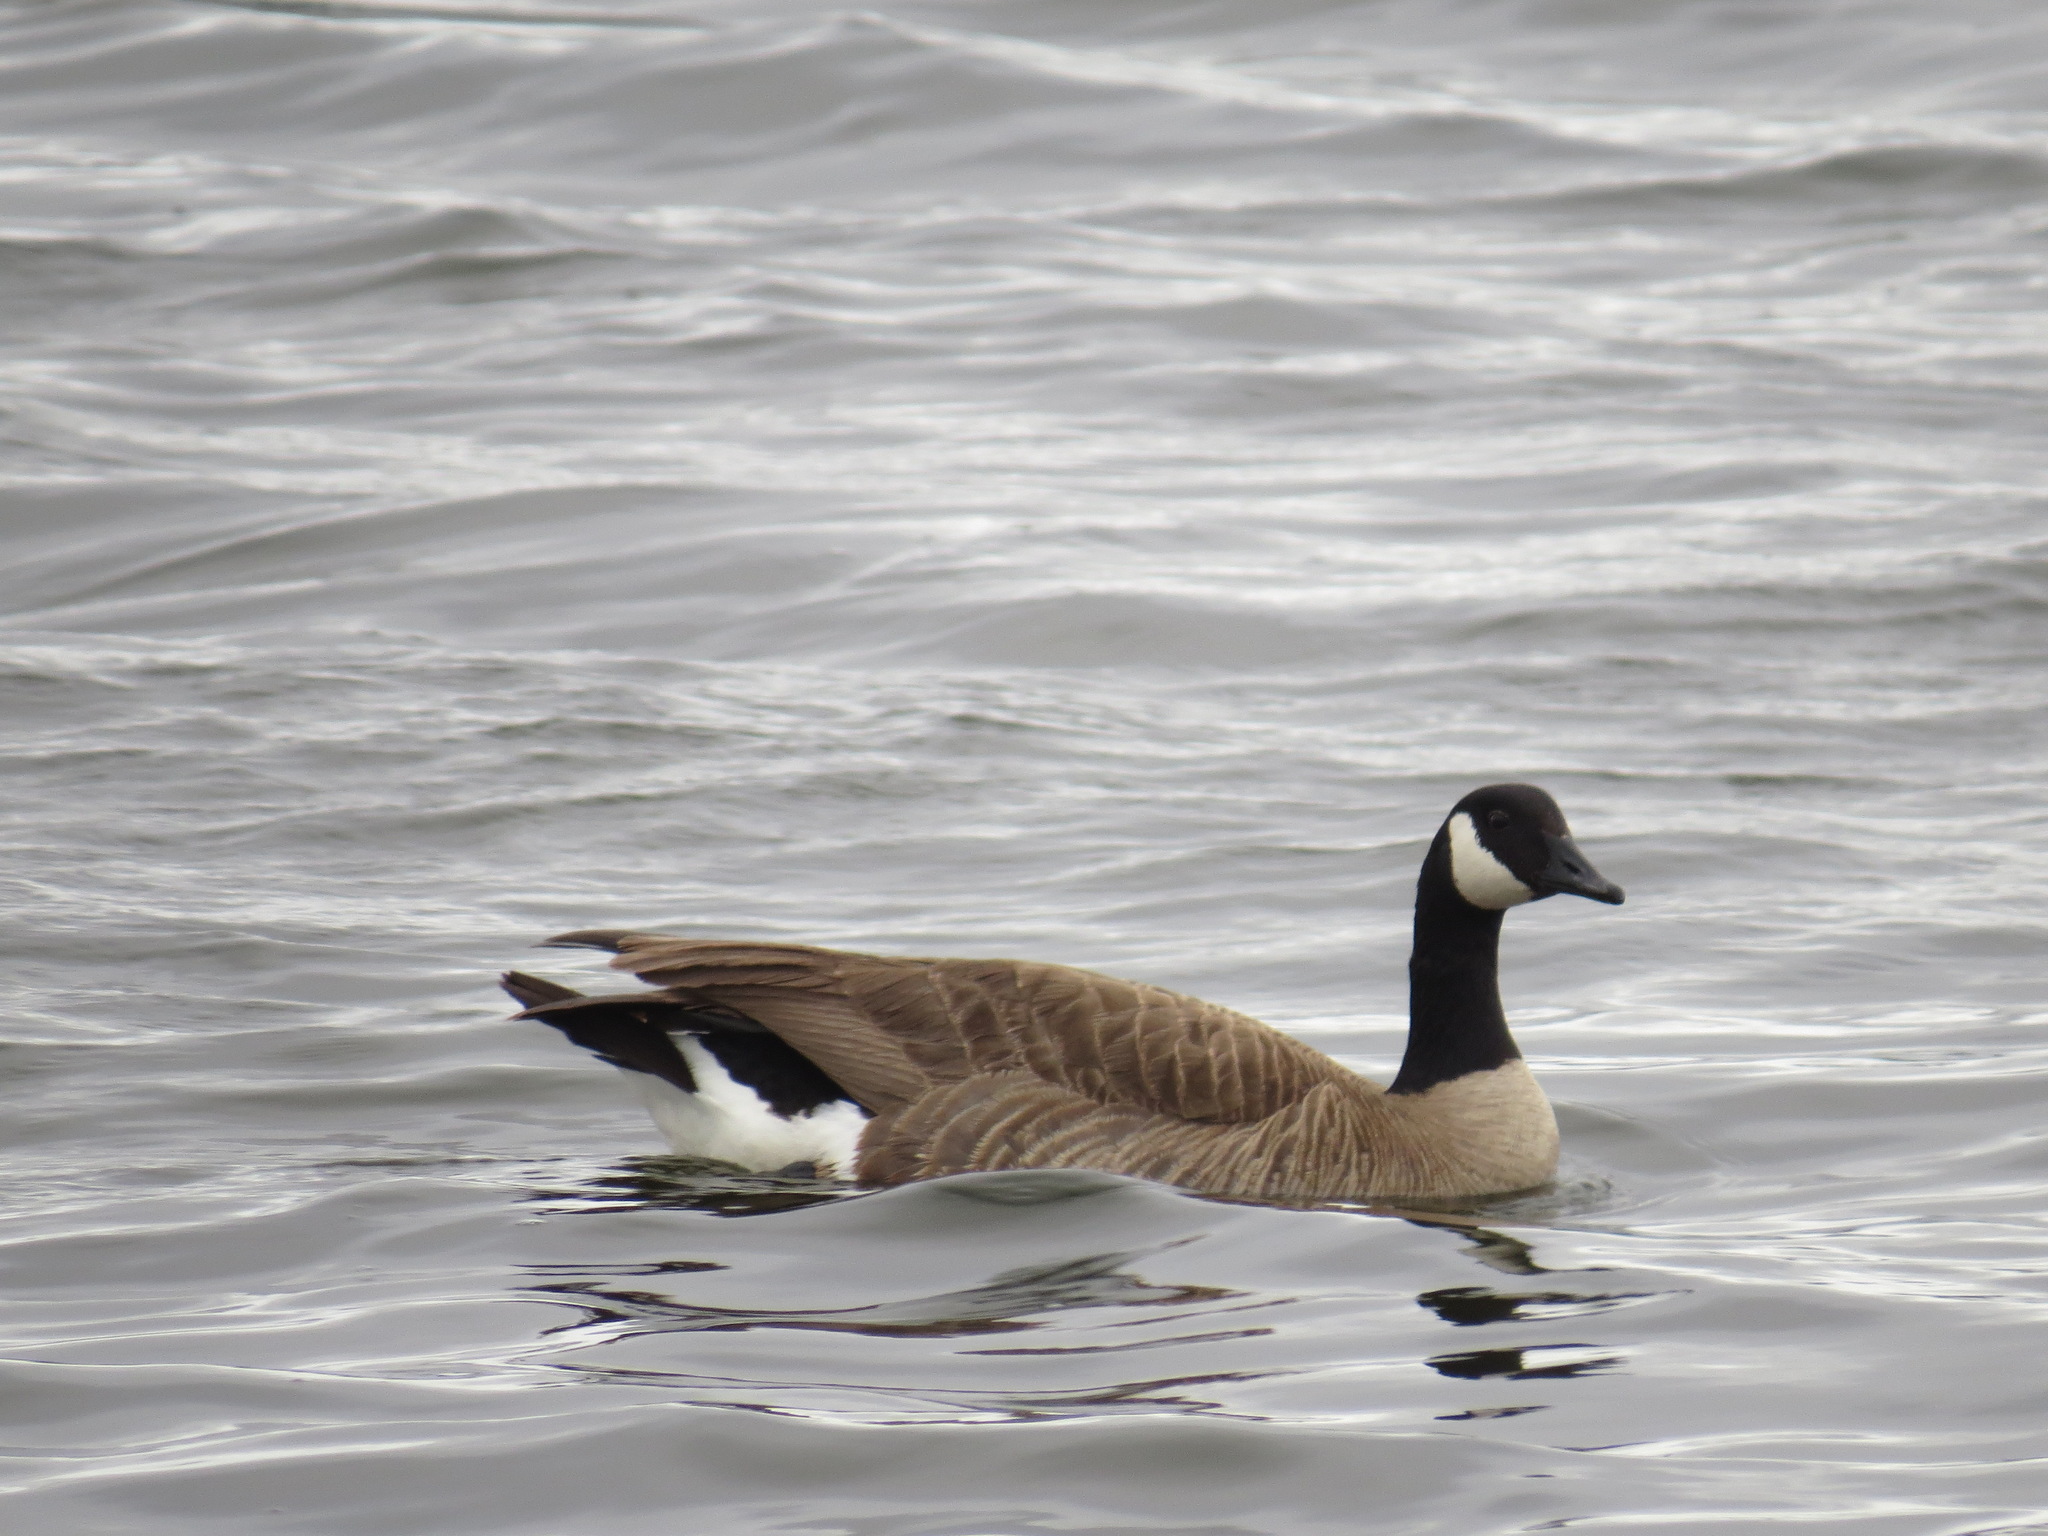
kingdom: Animalia
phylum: Chordata
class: Aves
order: Anseriformes
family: Anatidae
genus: Branta
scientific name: Branta canadensis
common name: Canada goose
